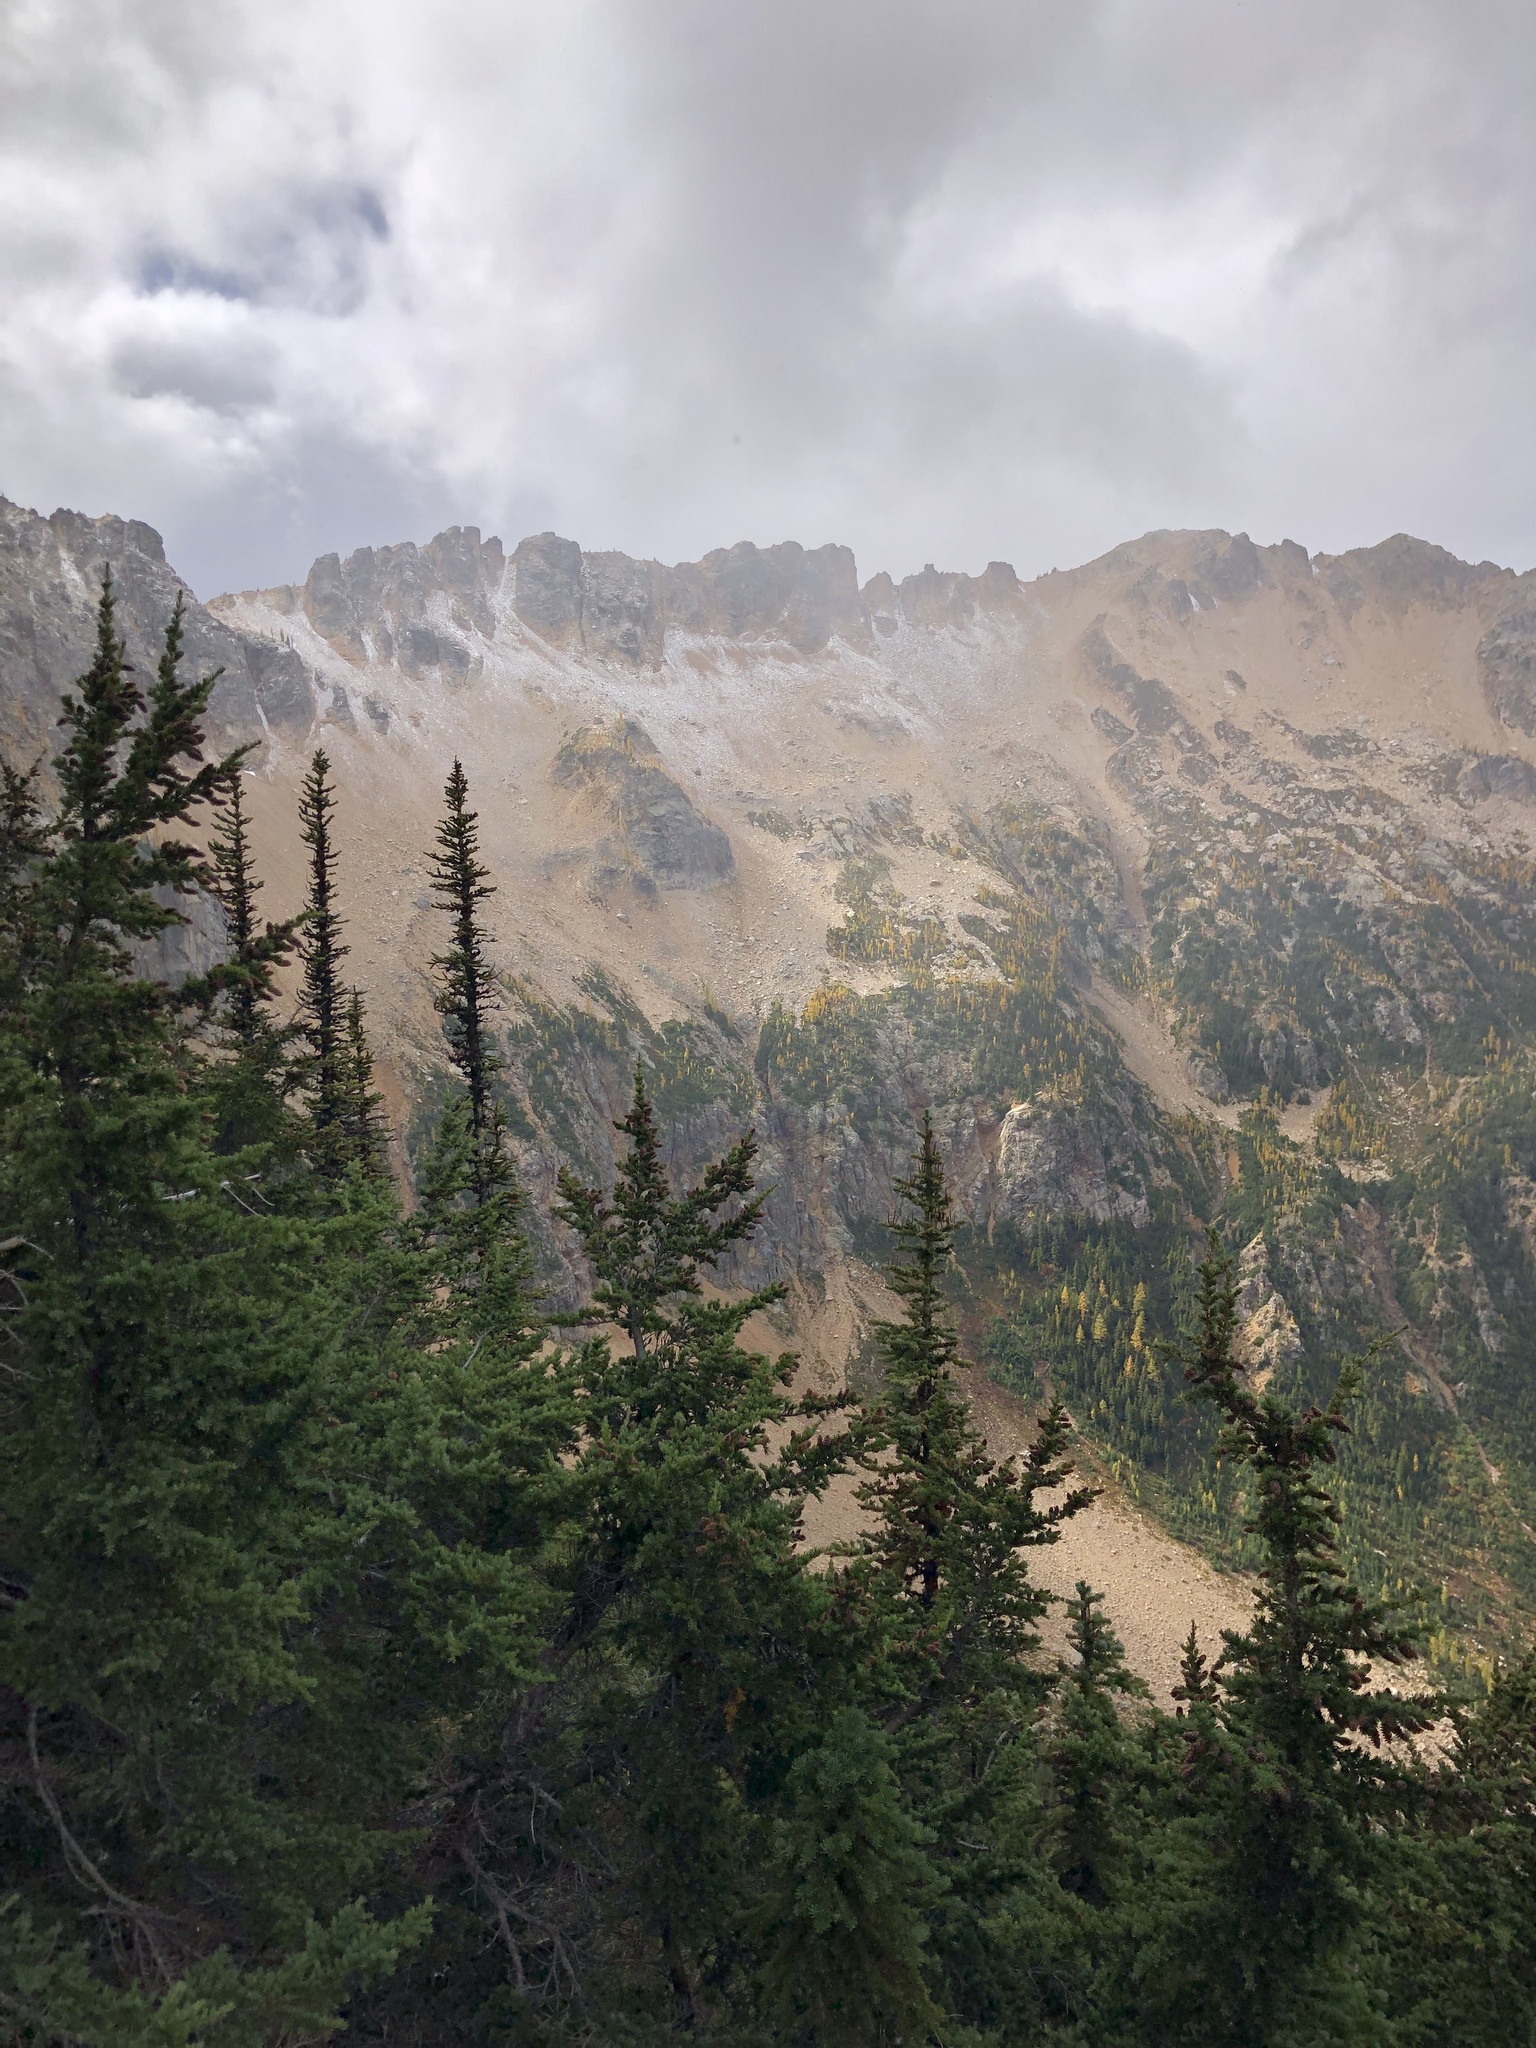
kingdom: Plantae
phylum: Tracheophyta
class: Pinopsida
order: Pinales
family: Pinaceae
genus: Tsuga
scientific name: Tsuga mertensiana
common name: Mountain hemlock
